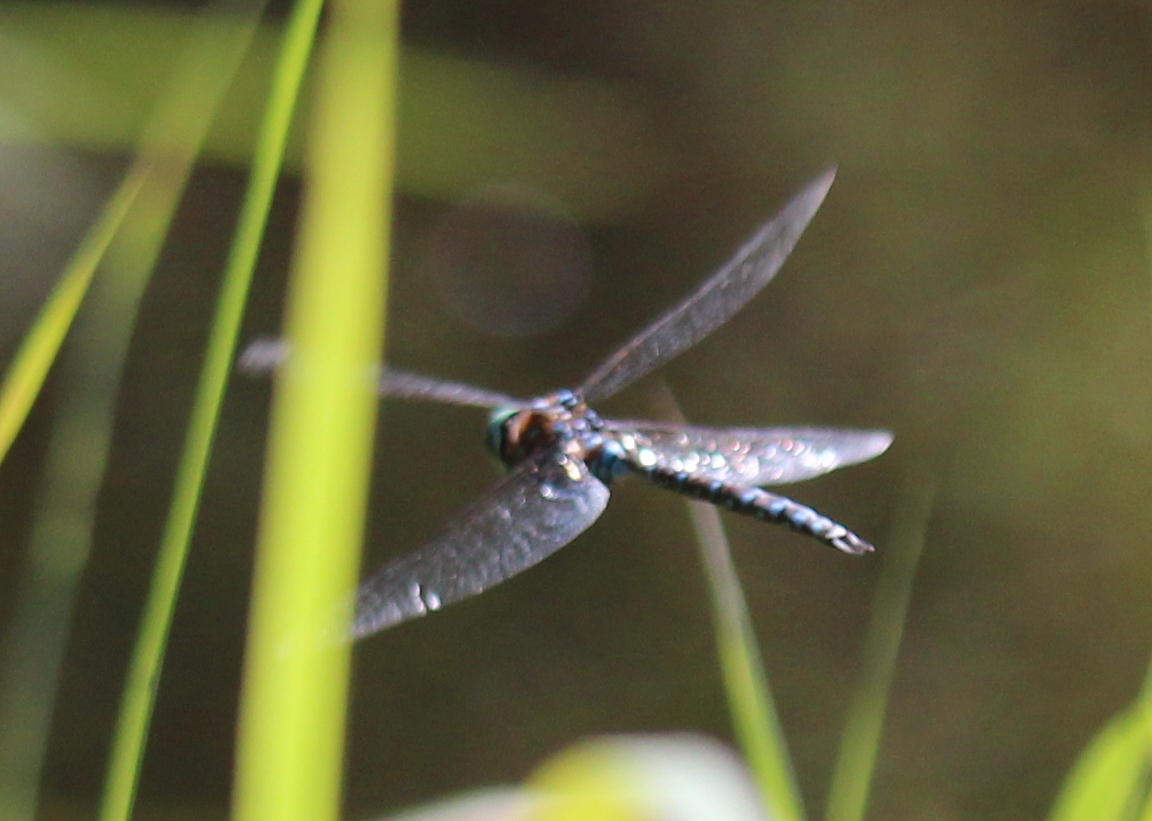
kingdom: Animalia
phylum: Arthropoda
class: Insecta
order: Odonata
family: Aeshnidae
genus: Aeshna
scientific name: Aeshna interrupta
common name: Variable darner
